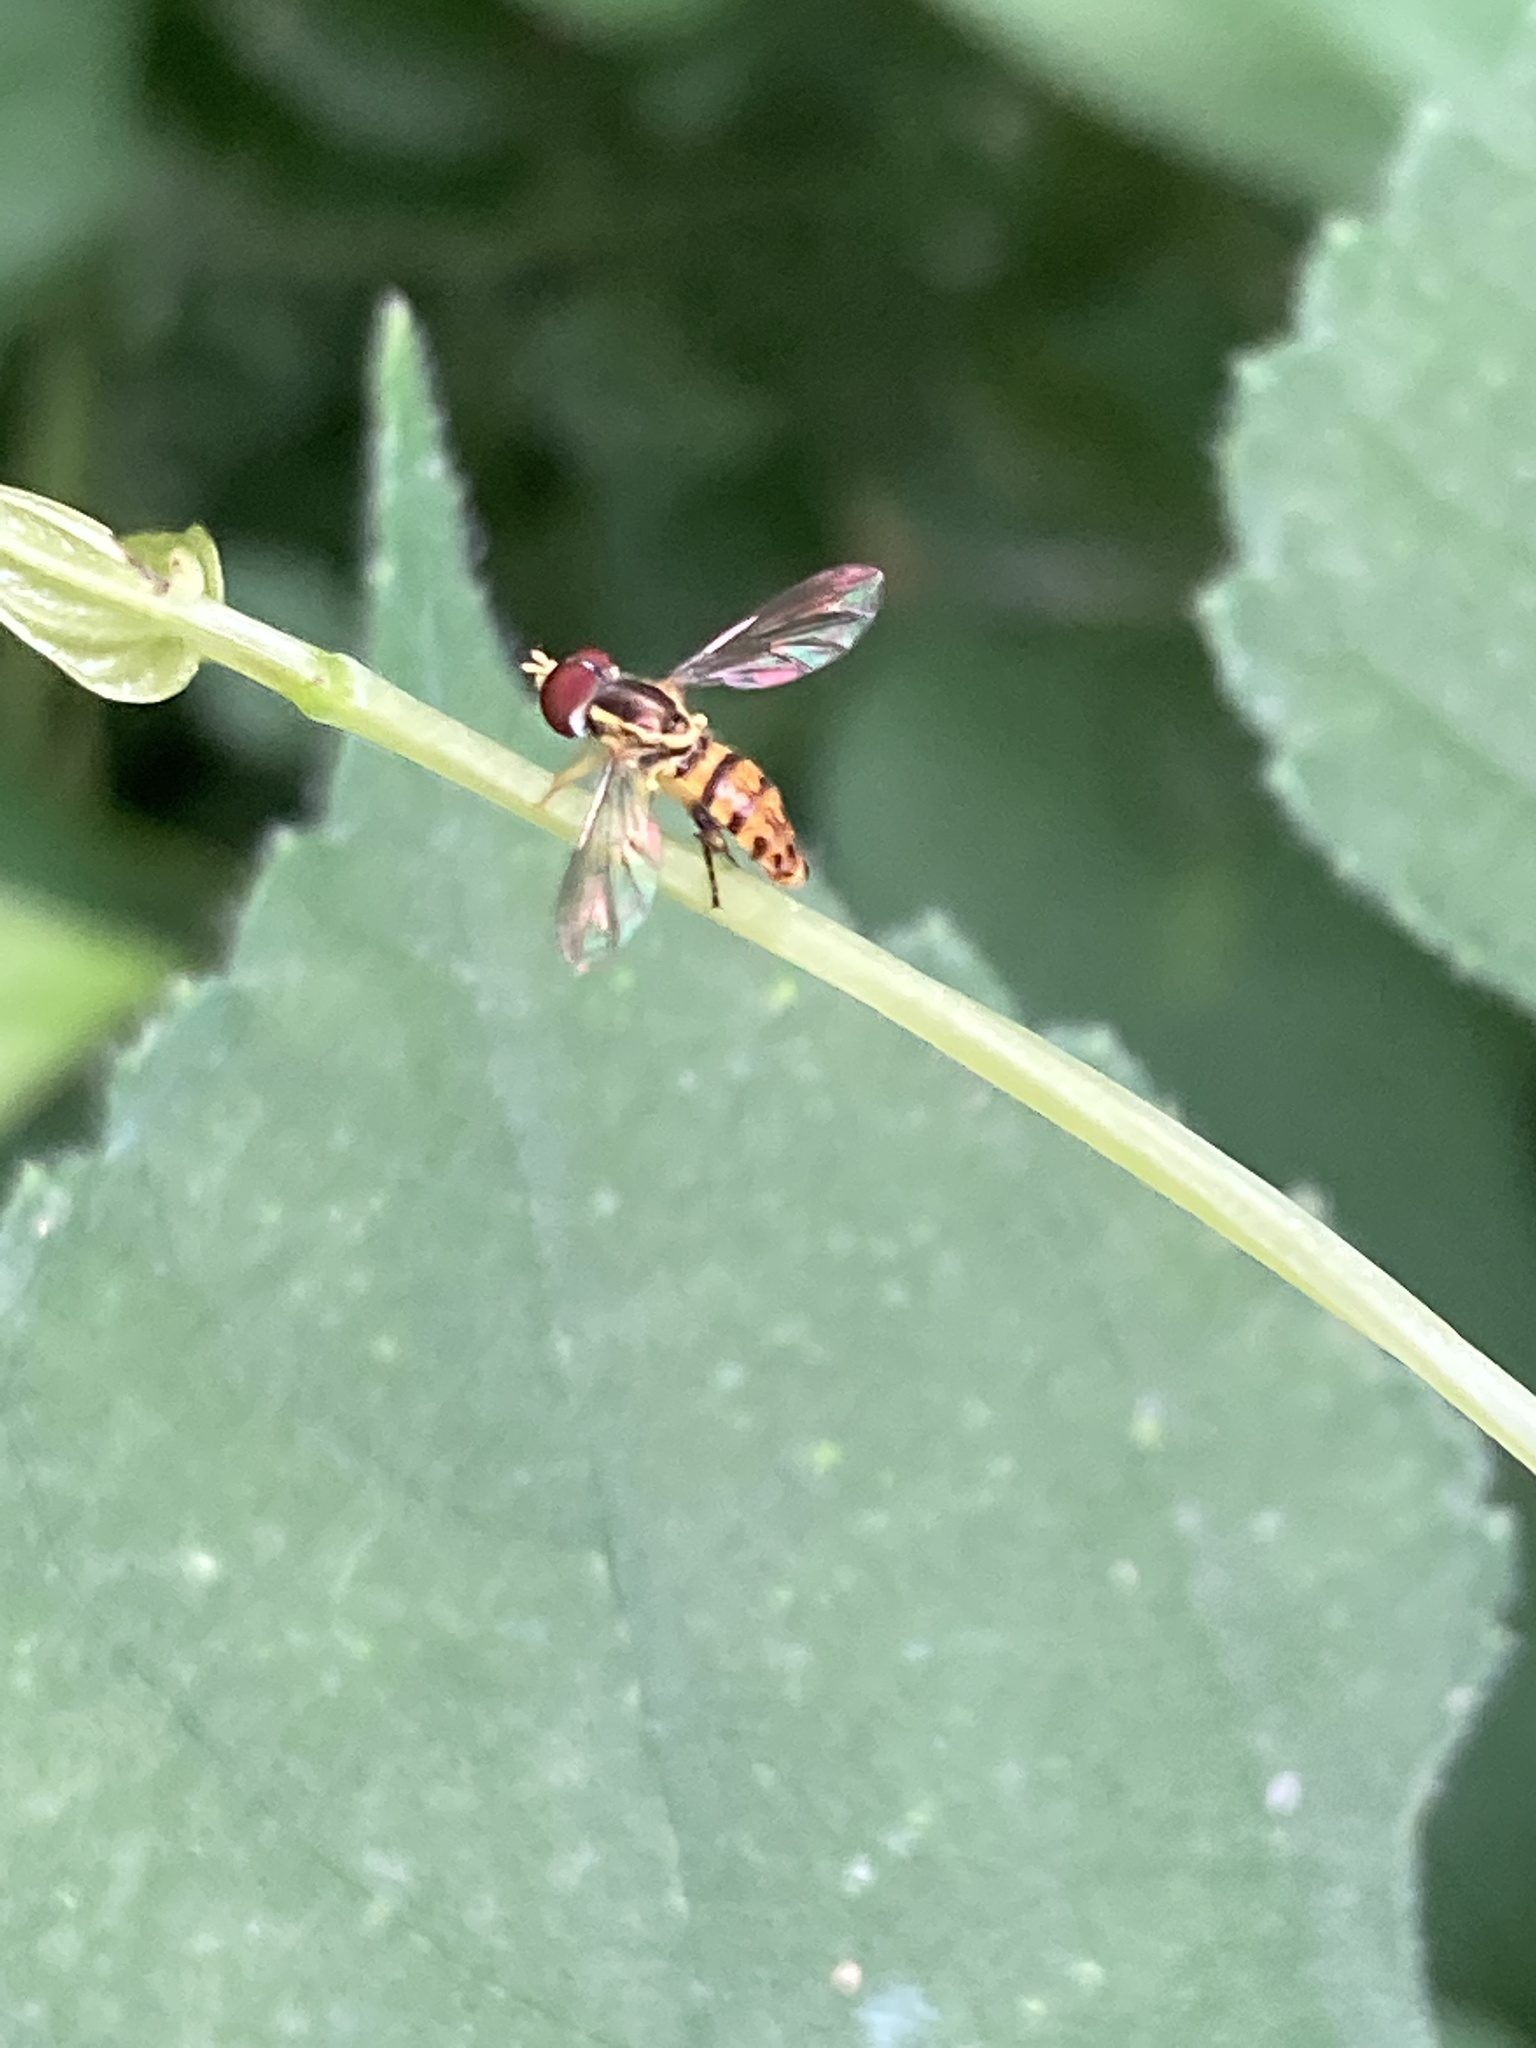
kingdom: Animalia
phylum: Arthropoda
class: Insecta
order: Diptera
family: Syrphidae
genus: Toxomerus
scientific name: Toxomerus geminatus
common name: Eastern calligrapher
